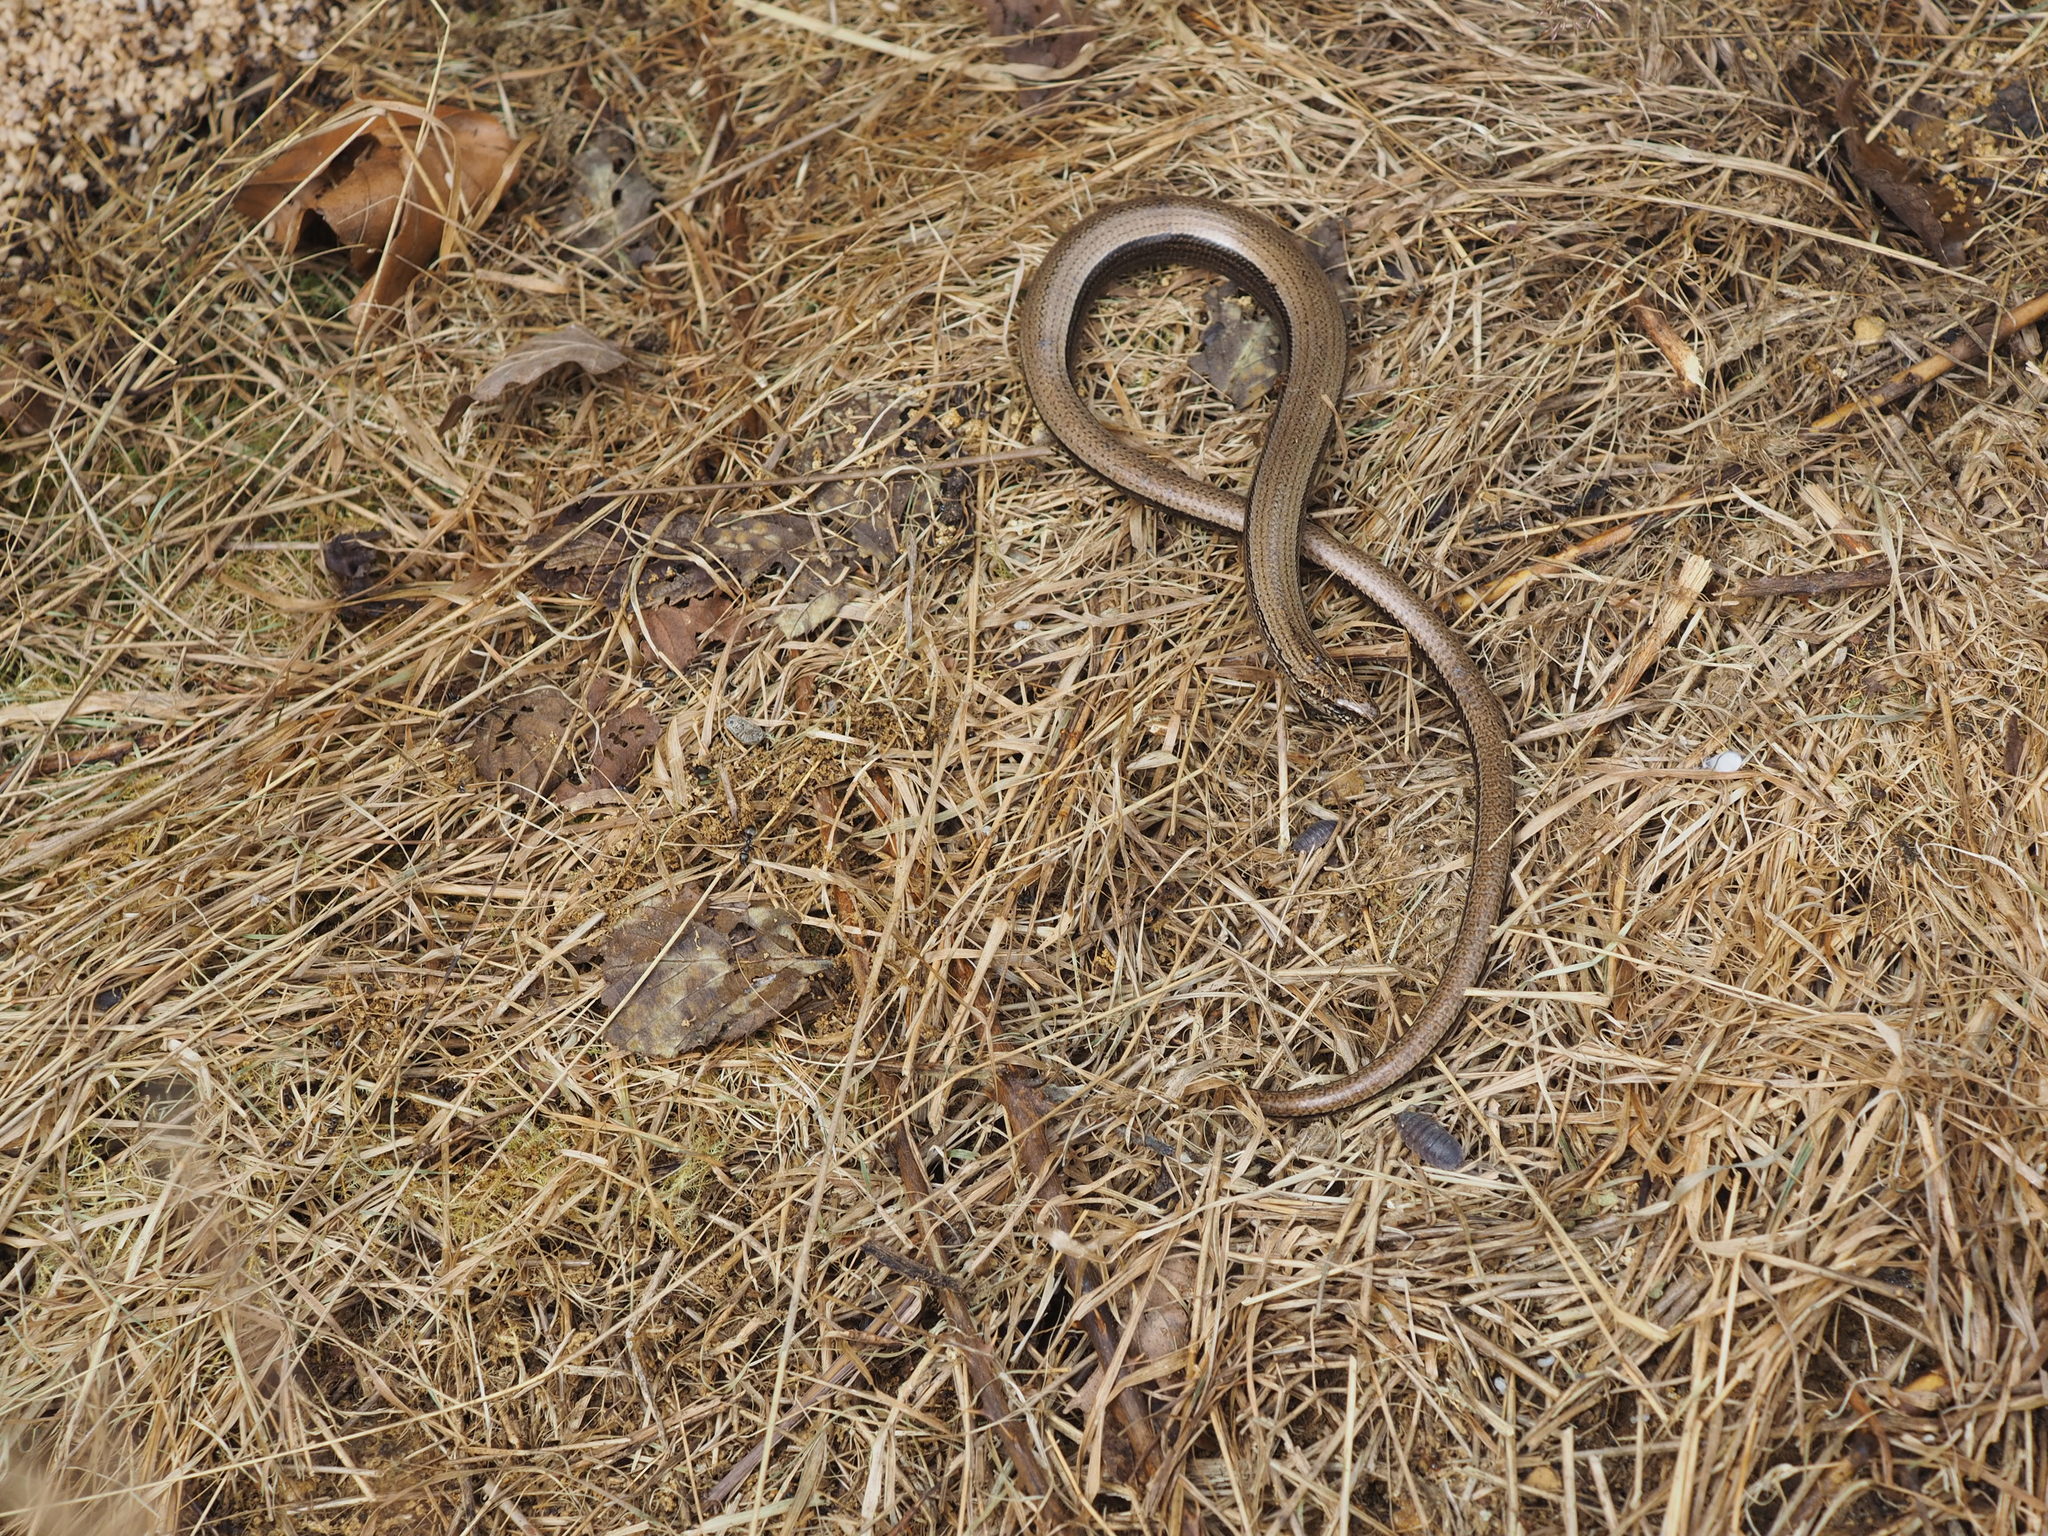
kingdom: Animalia
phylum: Chordata
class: Squamata
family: Anguidae
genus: Anguis
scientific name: Anguis fragilis
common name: Slow worm
